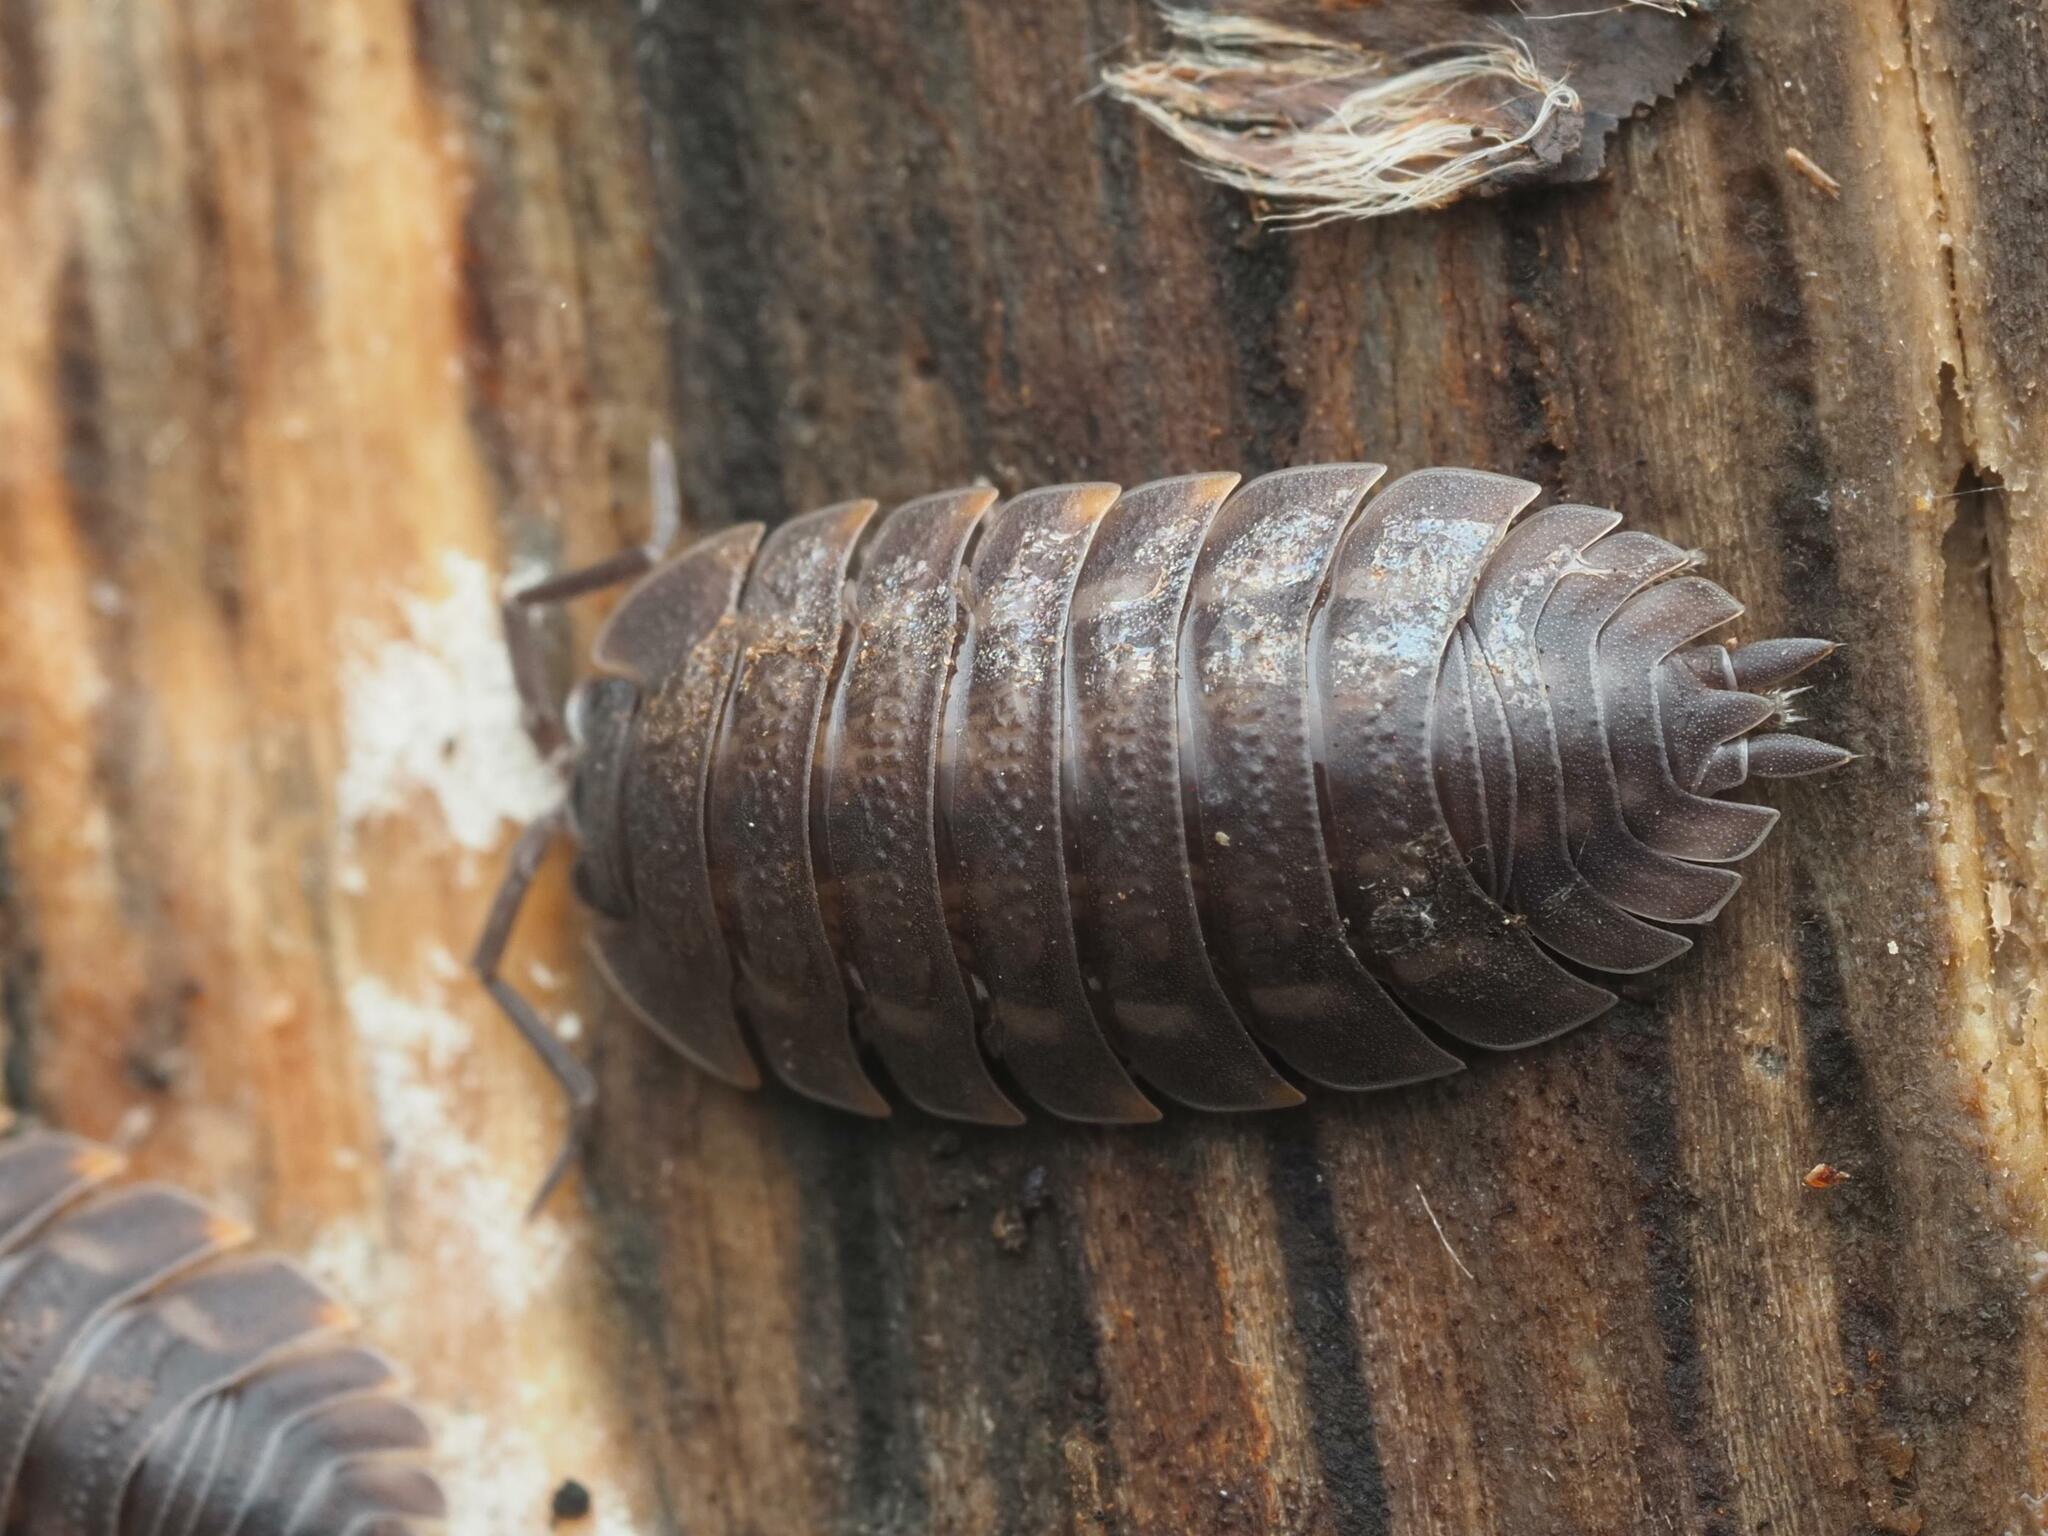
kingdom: Animalia
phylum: Arthropoda
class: Malacostraca
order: Isopoda
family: Trachelipodidae
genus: Trachelipus
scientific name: Trachelipus ratzeburgii
